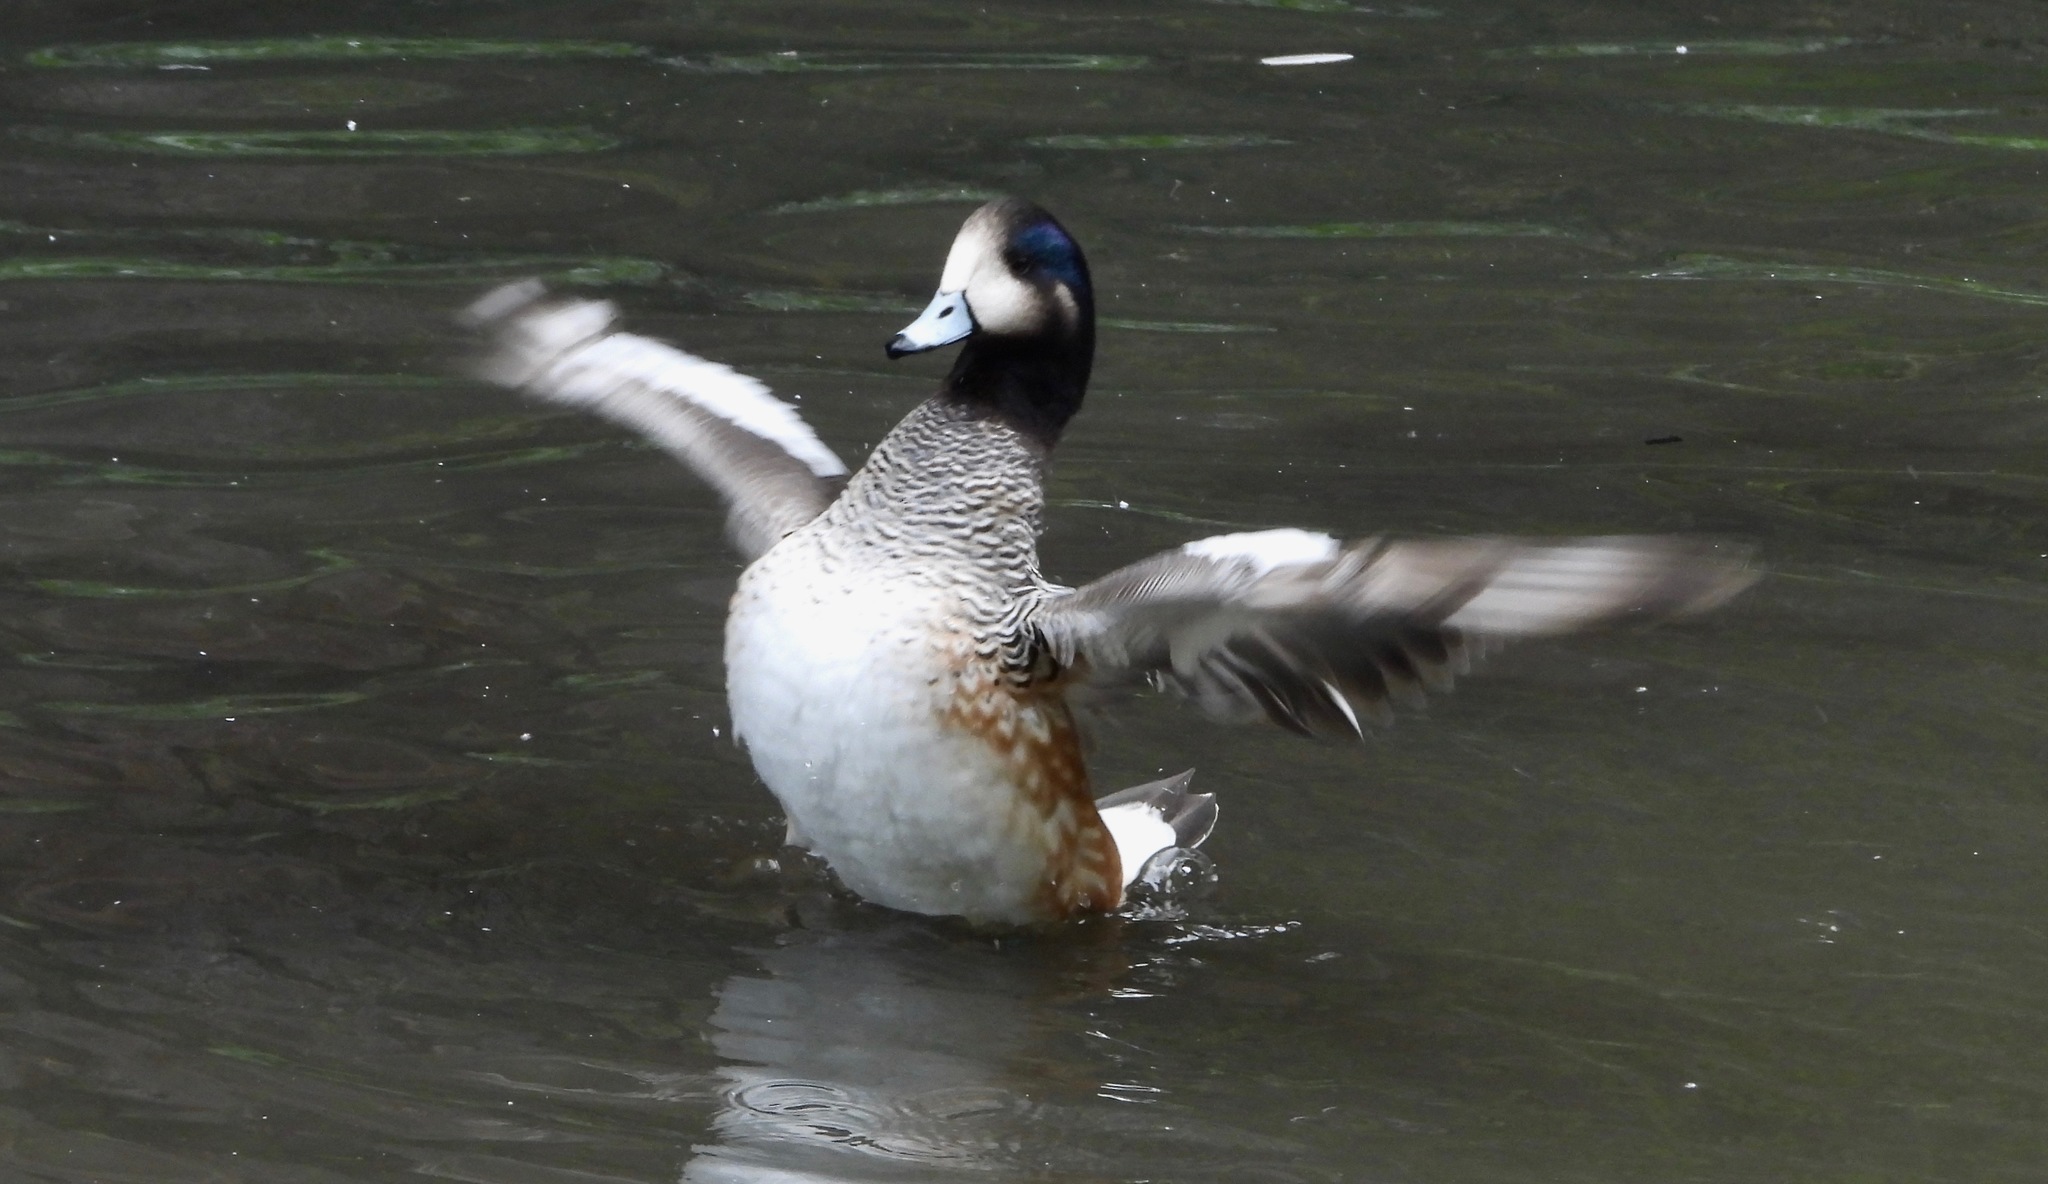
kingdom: Animalia
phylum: Chordata
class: Aves
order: Anseriformes
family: Anatidae
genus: Mareca
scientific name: Mareca sibilatrix
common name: Chiloe wigeon
